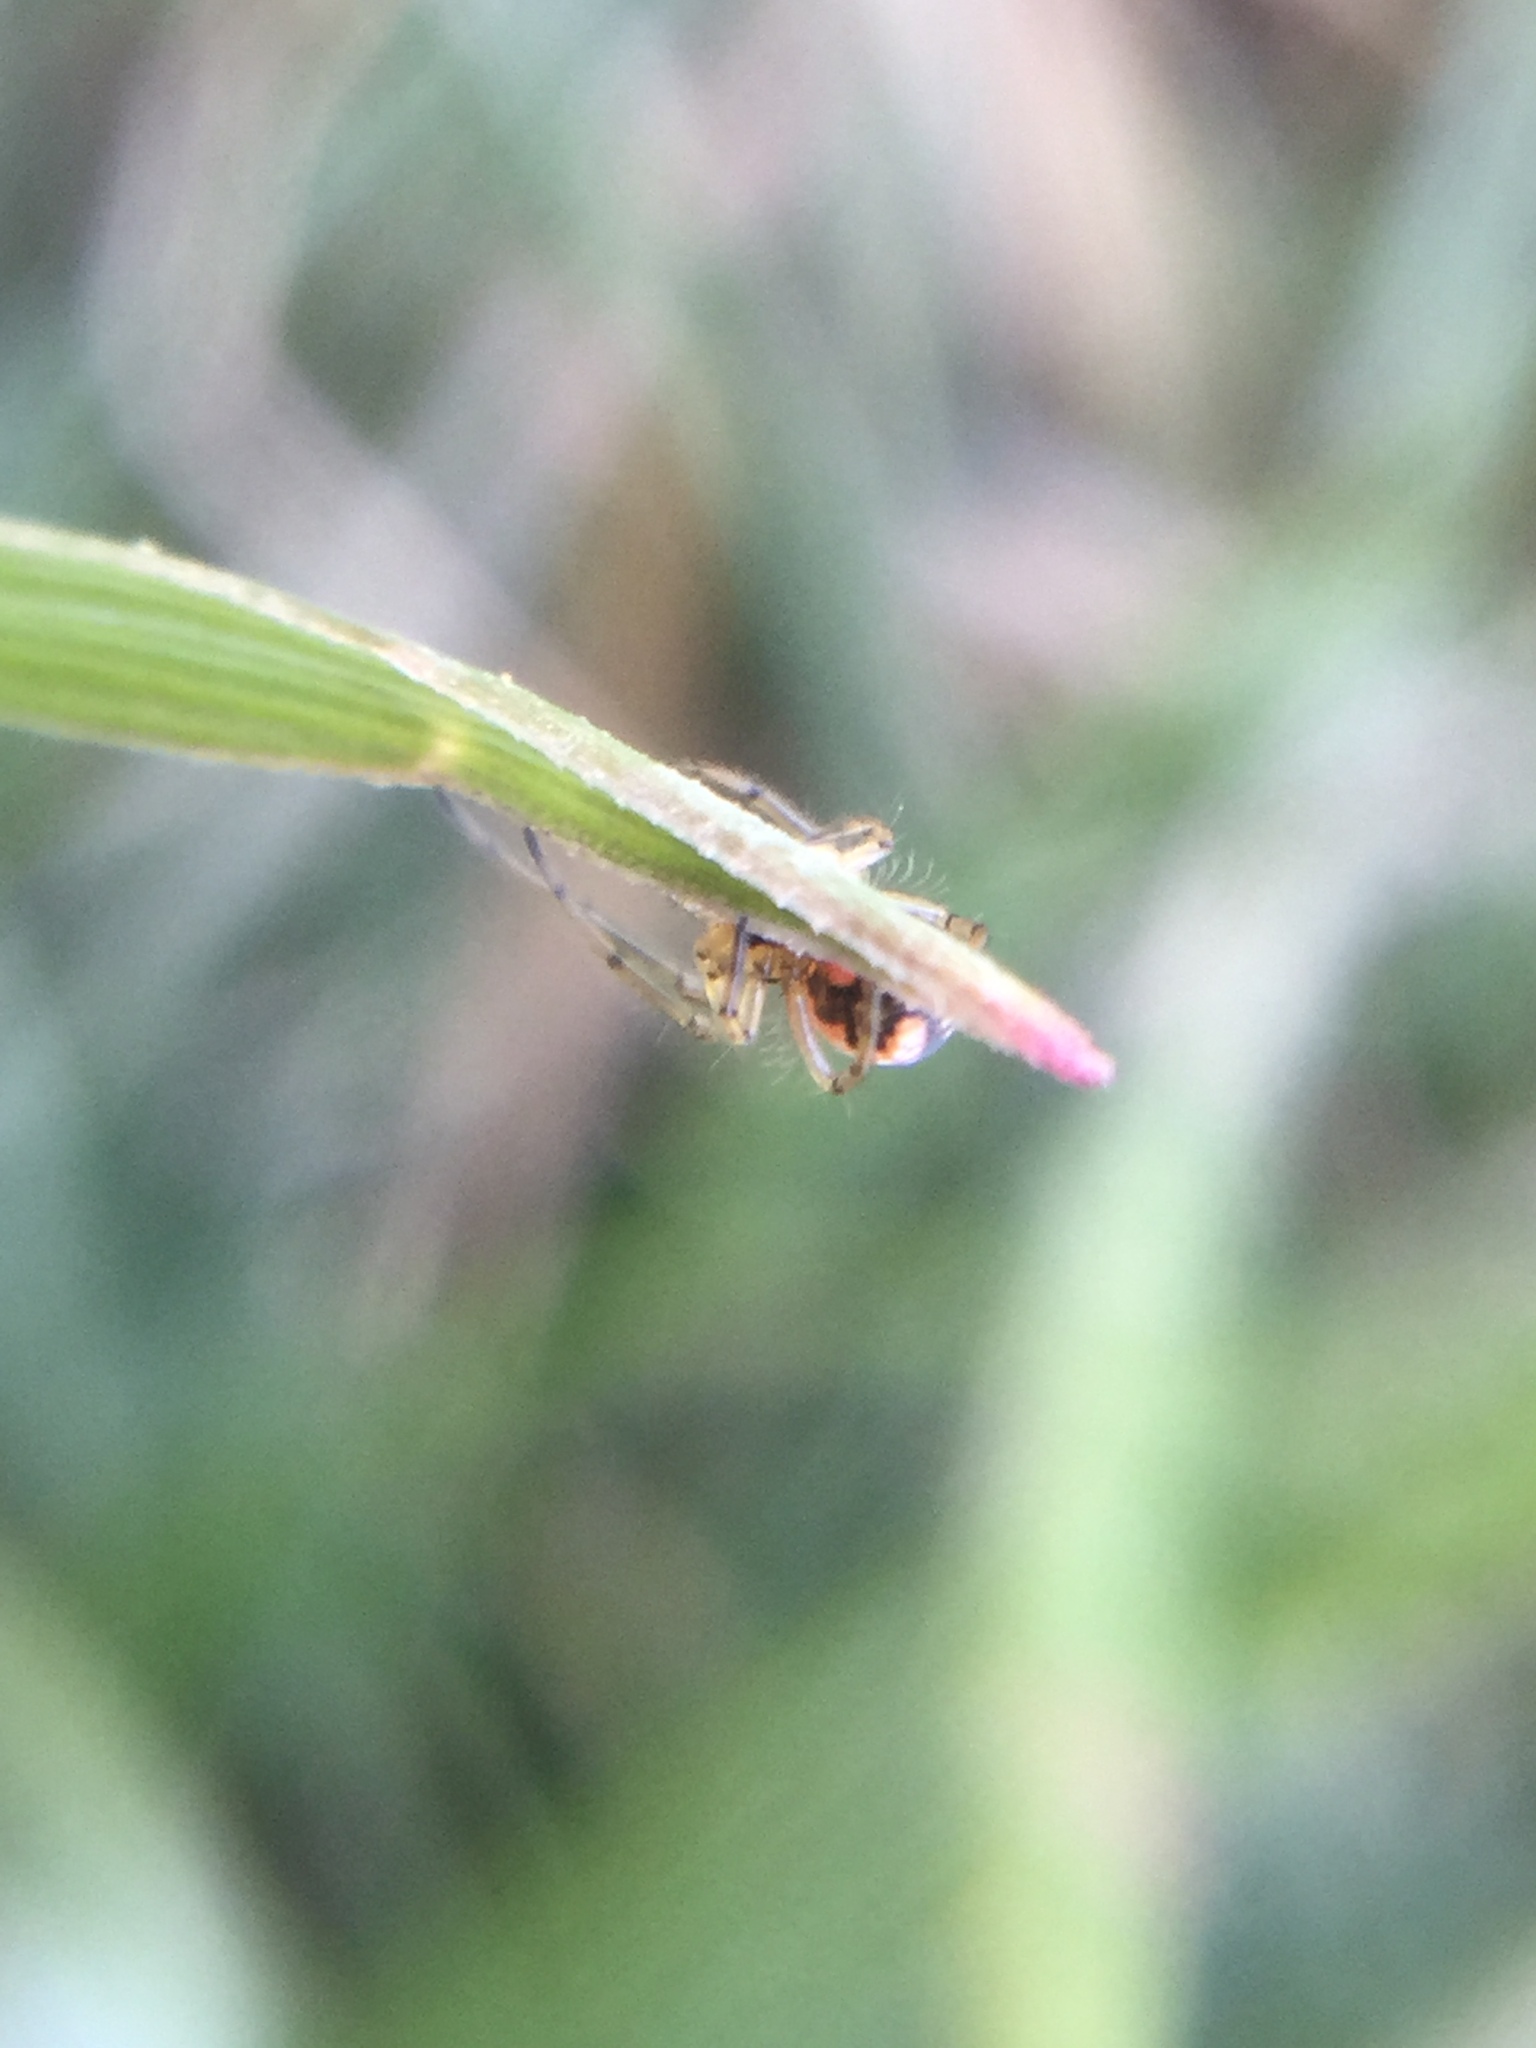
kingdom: Animalia
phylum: Arthropoda
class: Arachnida
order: Araneae
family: Tetragnathidae
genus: Leucauge
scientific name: Leucauge venusta
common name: Longjawed orb weavers
